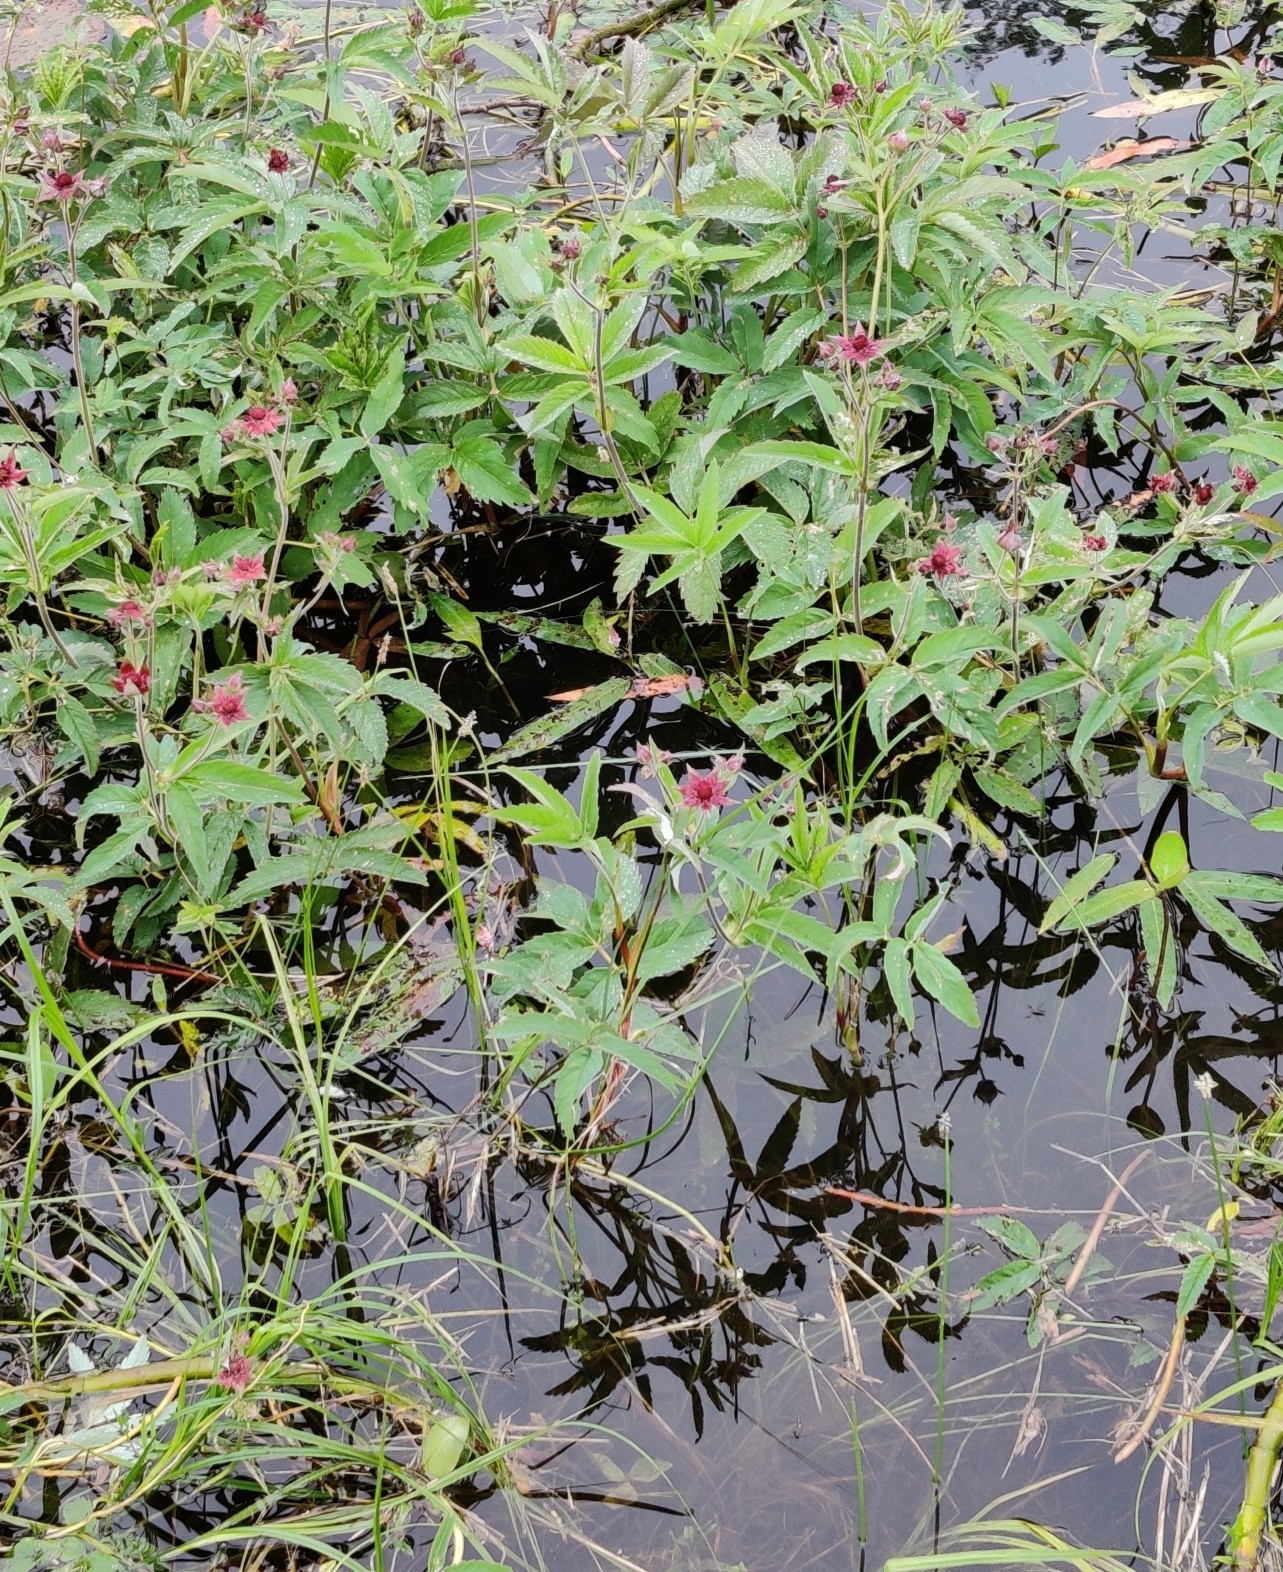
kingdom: Plantae
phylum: Tracheophyta
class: Magnoliopsida
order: Rosales
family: Rosaceae
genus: Comarum
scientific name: Comarum palustre
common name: Marsh cinquefoil
